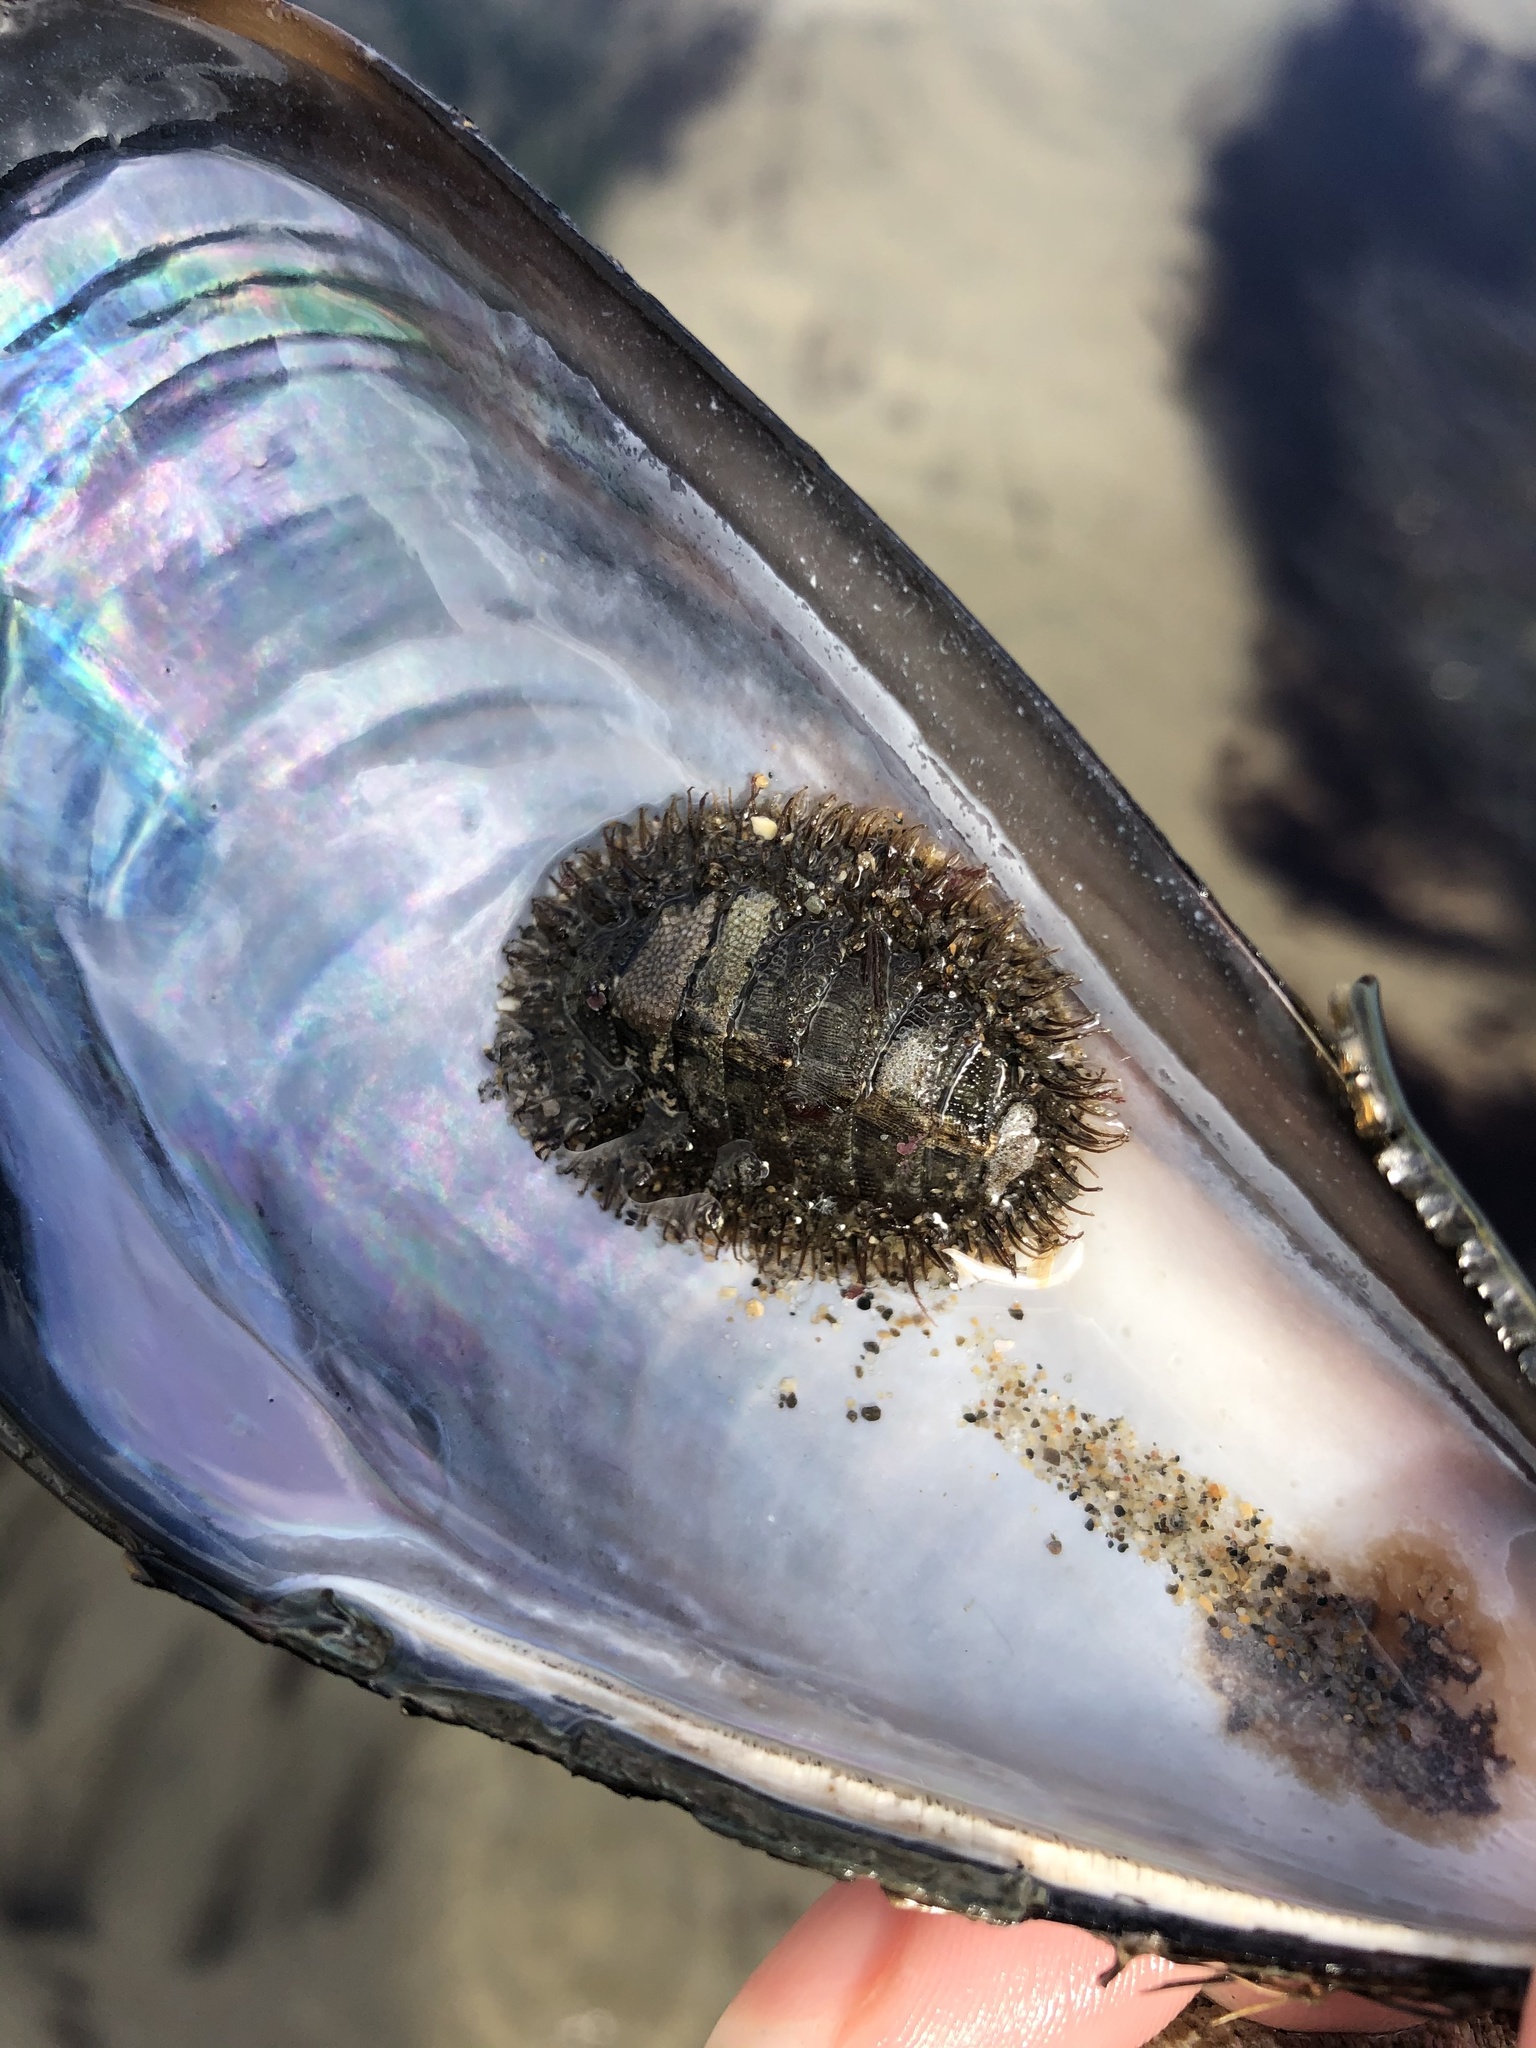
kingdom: Animalia
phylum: Mollusca
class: Polyplacophora
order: Chitonida
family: Mopaliidae
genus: Mopalia
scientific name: Mopalia muscosa
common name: Mossy chiton
